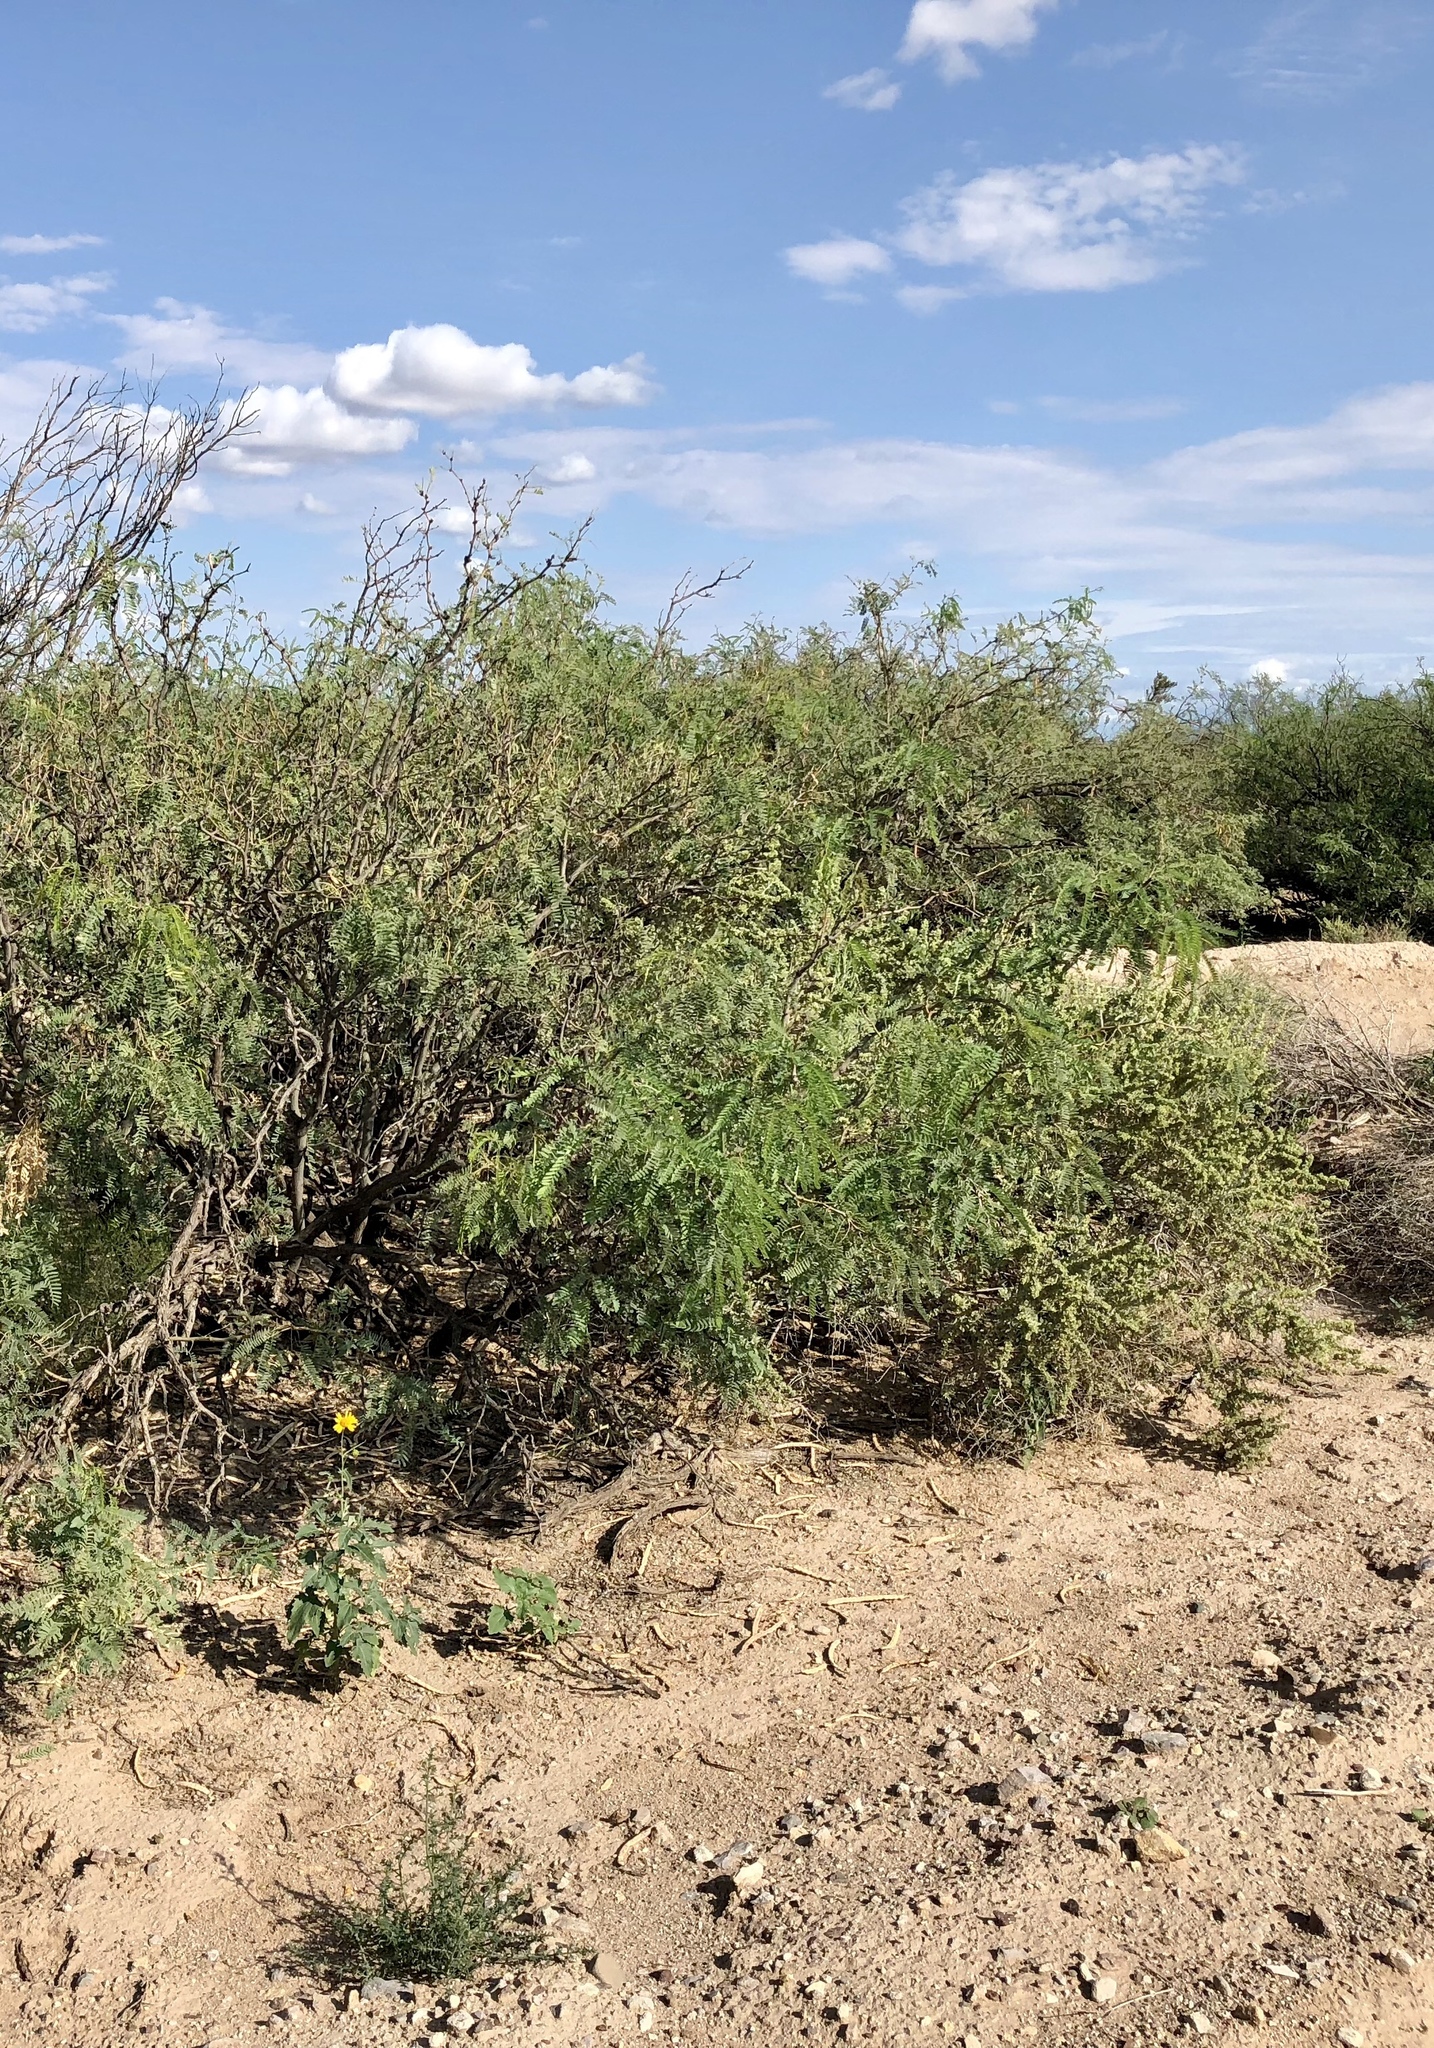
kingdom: Plantae
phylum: Tracheophyta
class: Magnoliopsida
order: Fabales
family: Fabaceae
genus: Prosopis
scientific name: Prosopis glandulosa
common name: Honey mesquite
